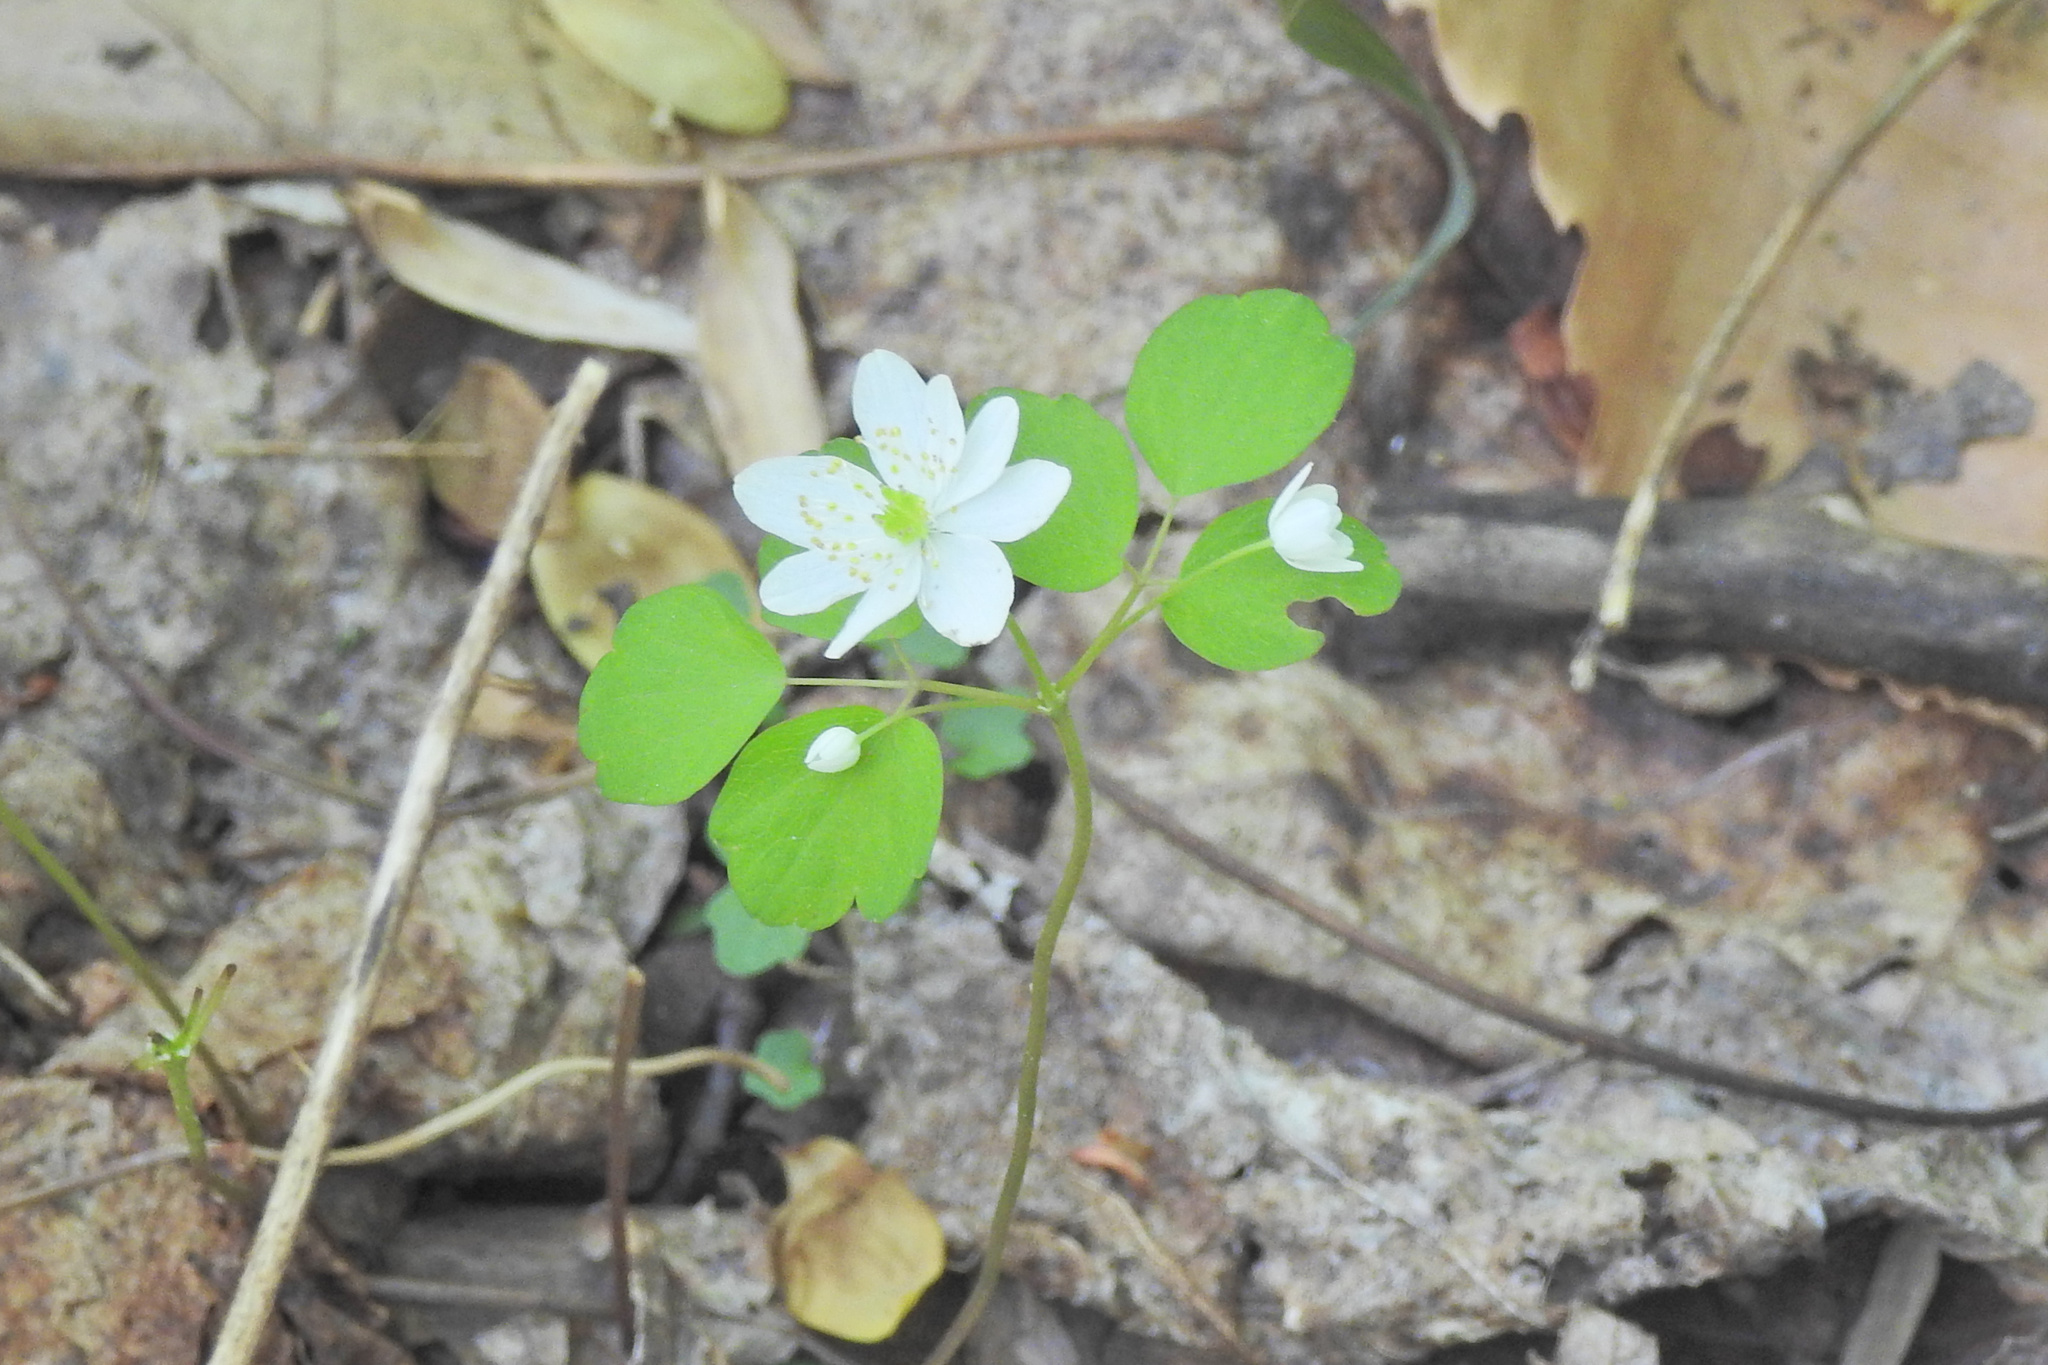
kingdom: Plantae
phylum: Tracheophyta
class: Magnoliopsida
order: Ranunculales
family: Ranunculaceae
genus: Thalictrum
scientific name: Thalictrum thalictroides
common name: Rue-anemone
